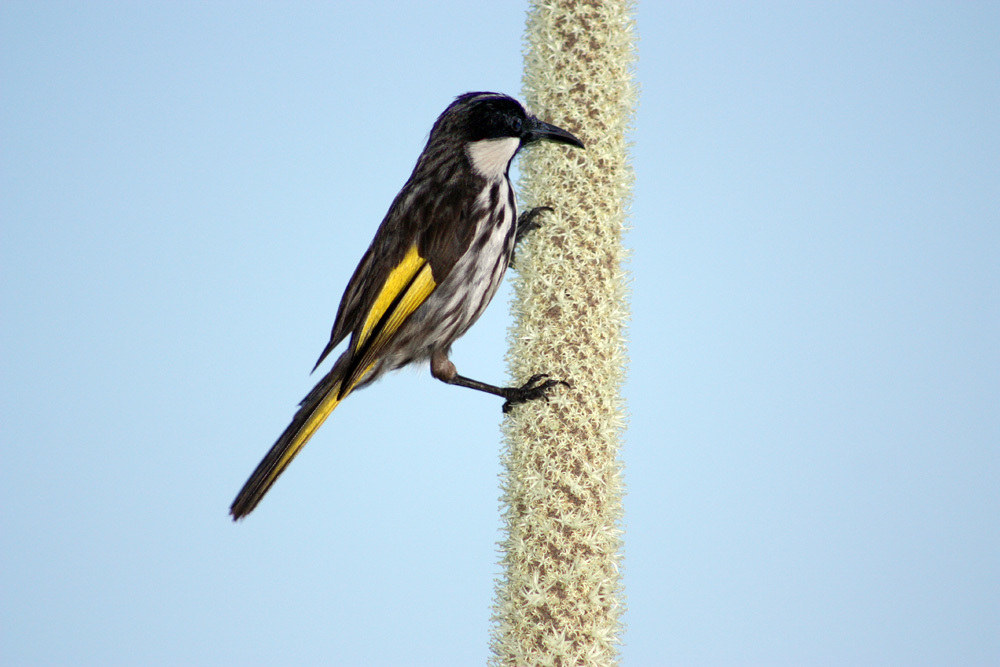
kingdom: Animalia
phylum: Chordata
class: Aves
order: Passeriformes
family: Meliphagidae
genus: Phylidonyris
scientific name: Phylidonyris niger
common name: White-cheeked honeyeater
